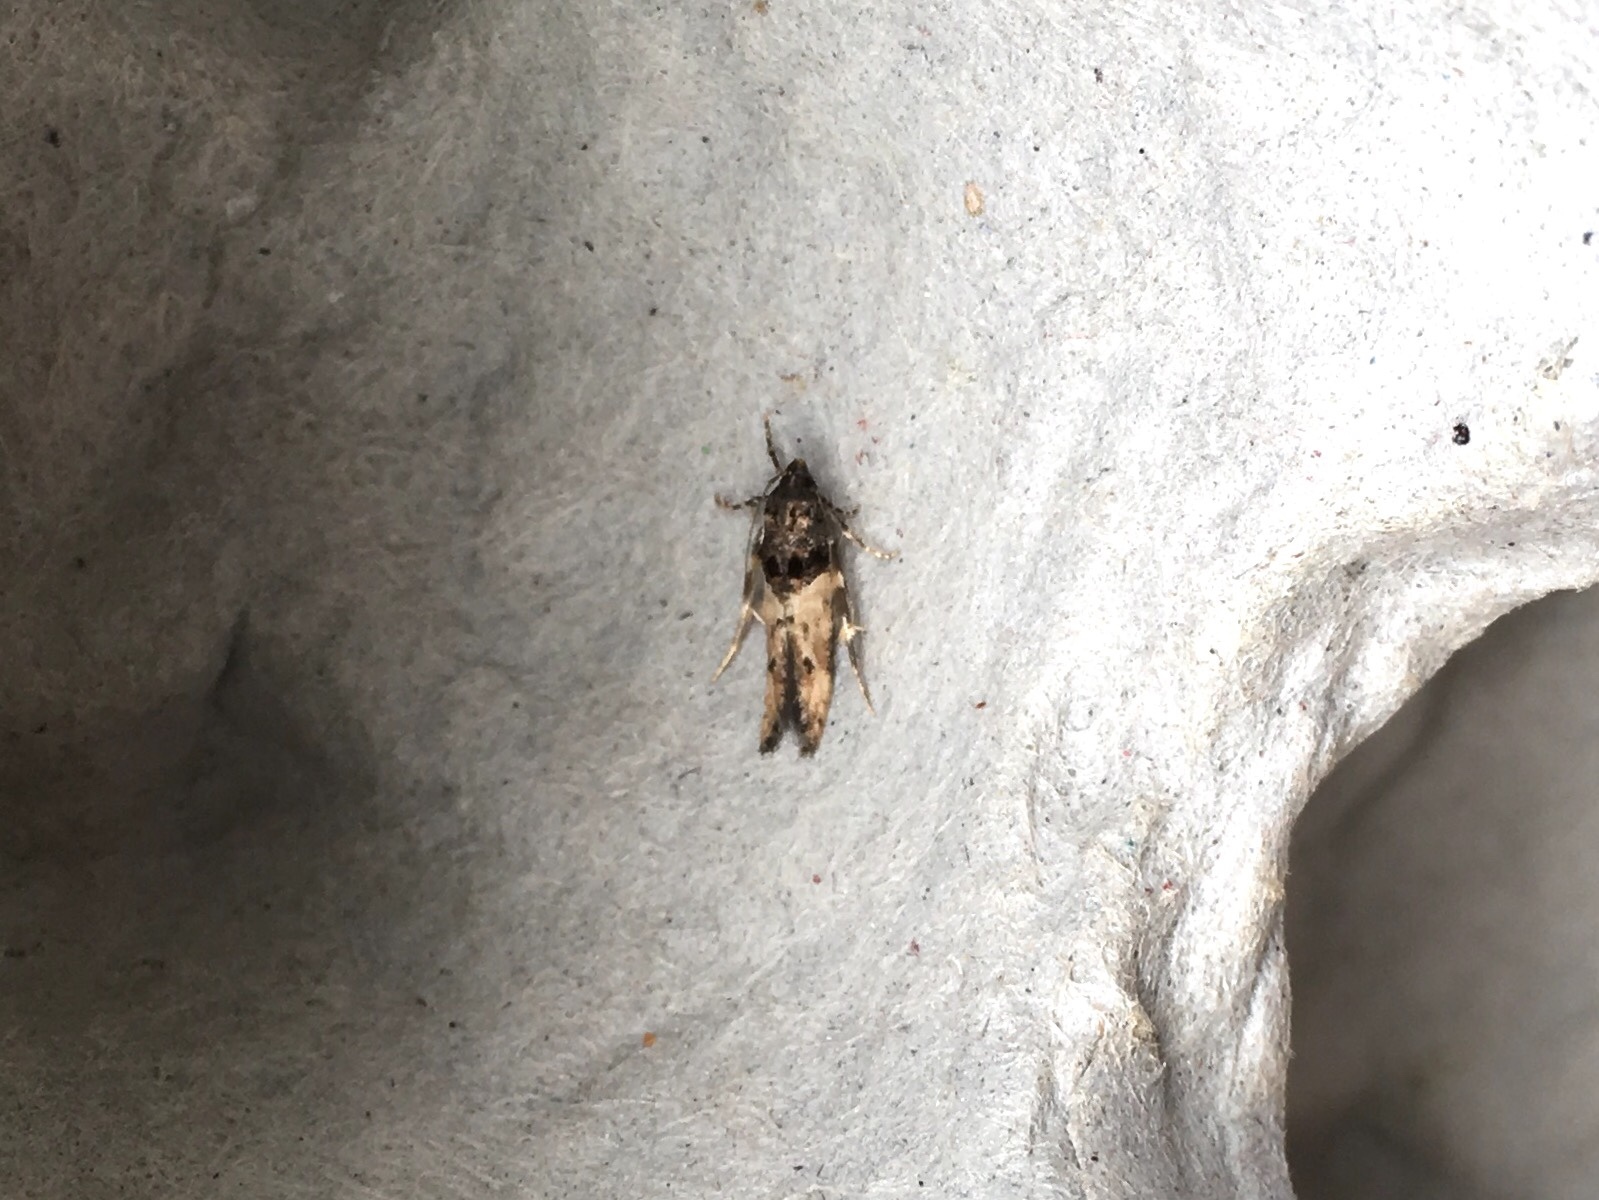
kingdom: Animalia
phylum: Arthropoda
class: Insecta
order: Lepidoptera
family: Cosmopterigidae
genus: Walshia
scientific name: Walshia miscecolorella
